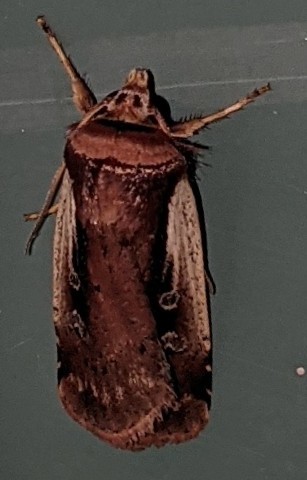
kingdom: Animalia
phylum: Arthropoda
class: Insecta
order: Lepidoptera
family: Noctuidae
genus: Ochropleura
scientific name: Ochropleura implecta
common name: Flame-shouldered dart
